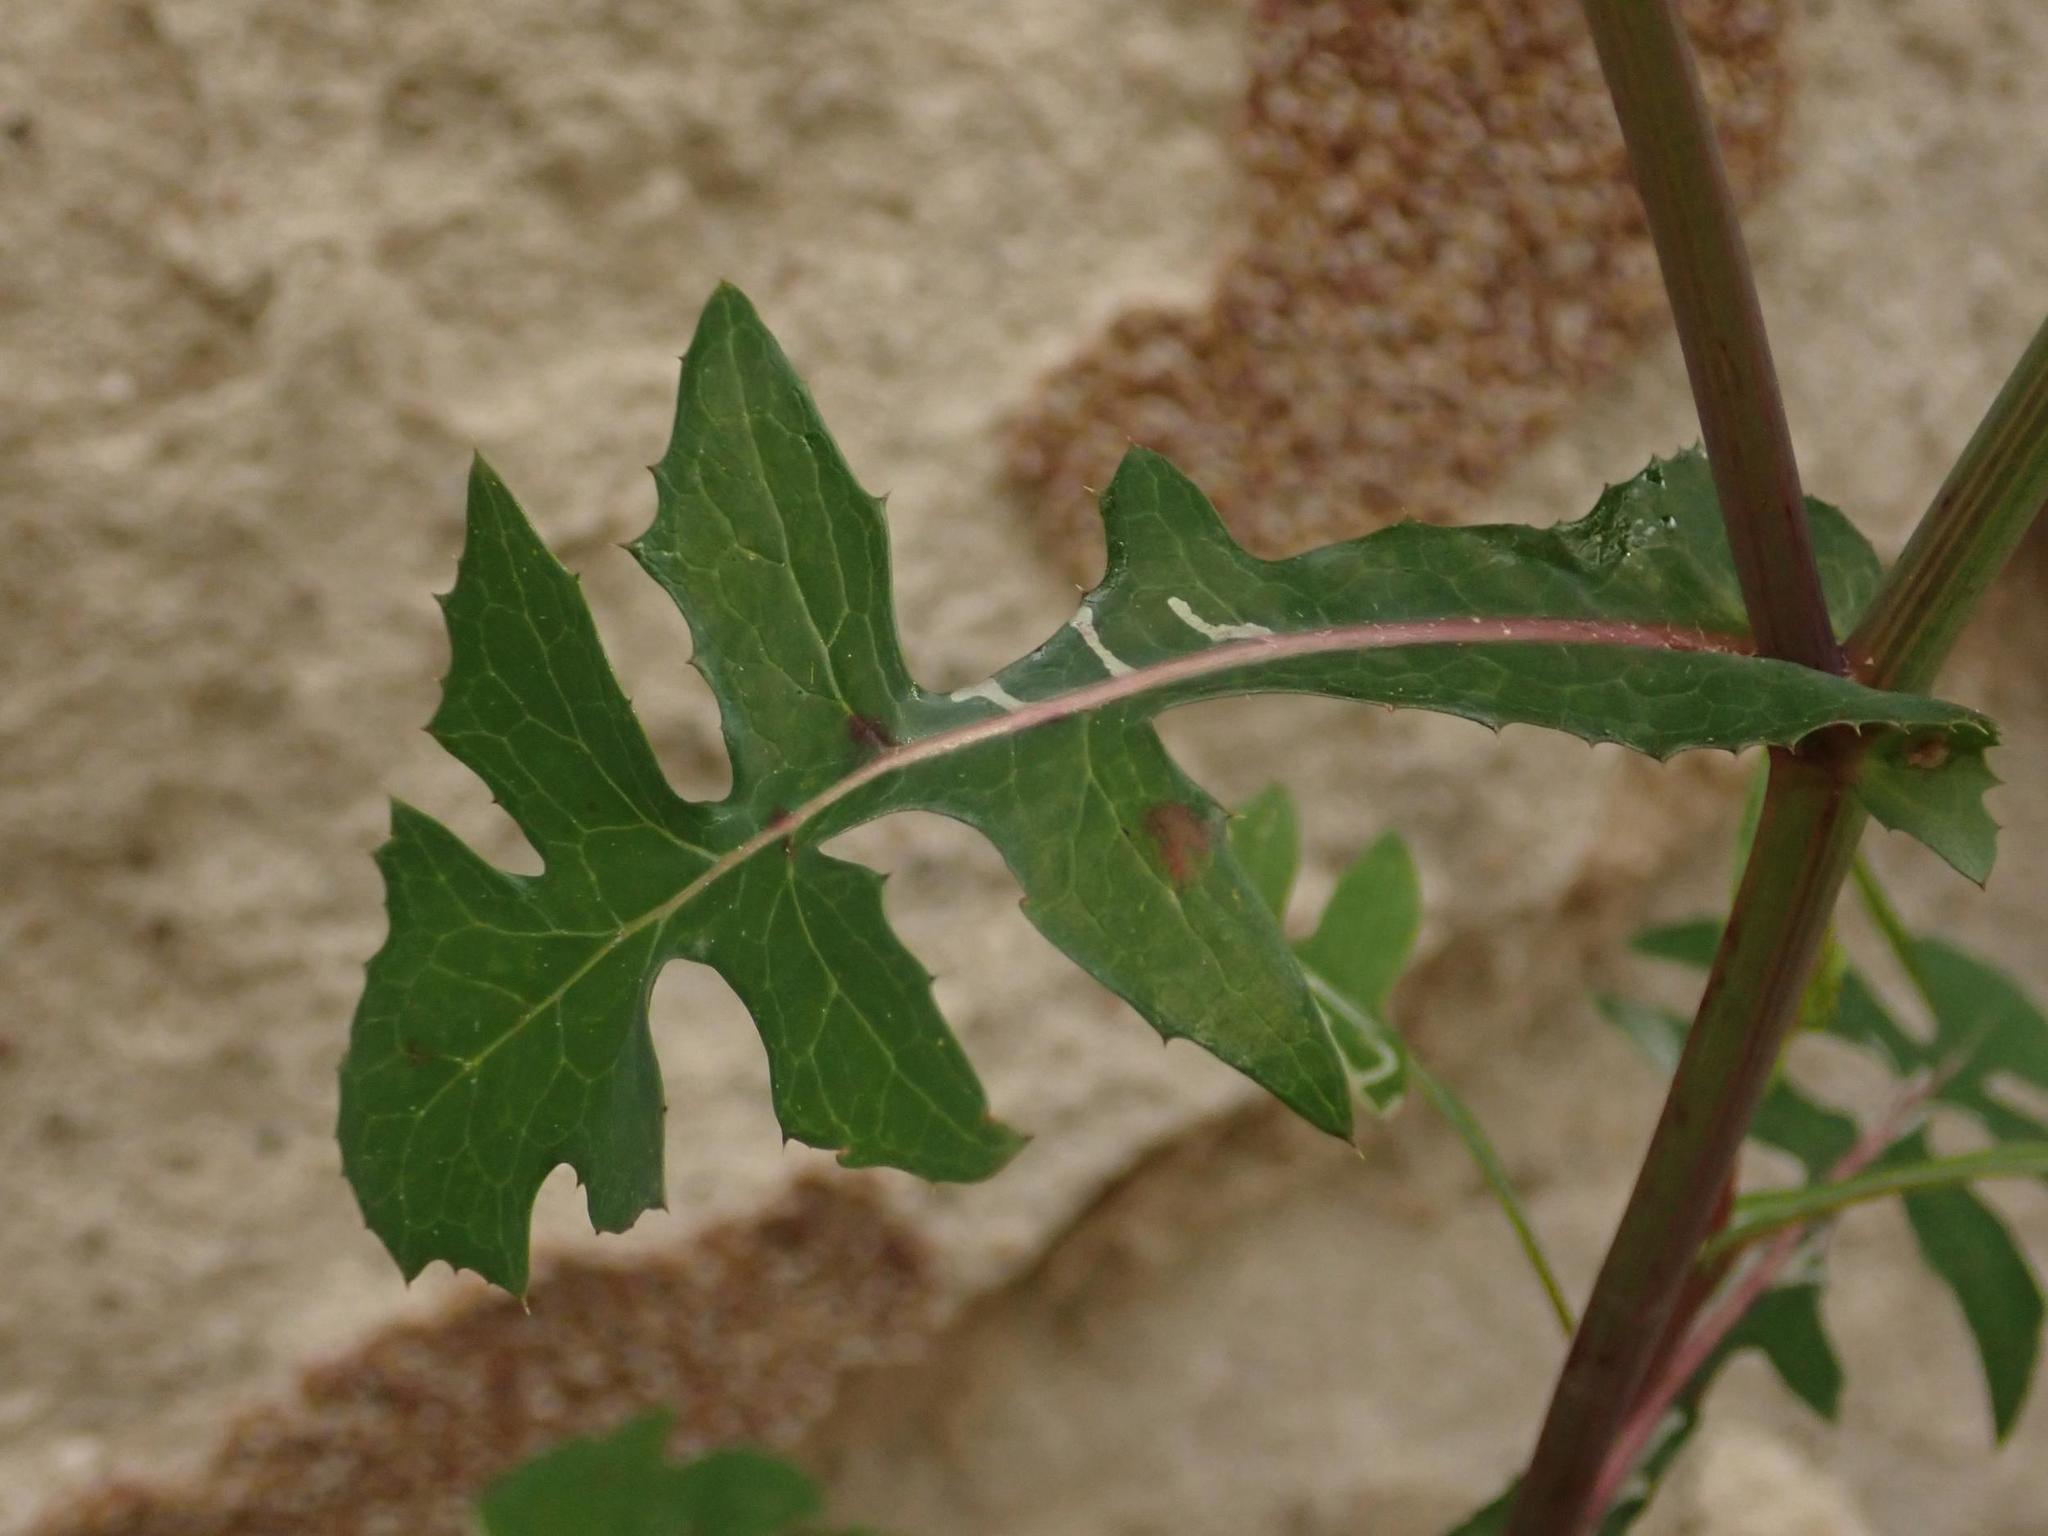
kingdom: Plantae
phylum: Tracheophyta
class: Magnoliopsida
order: Asterales
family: Asteraceae
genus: Sonchus
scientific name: Sonchus oleraceus
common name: Common sowthistle
